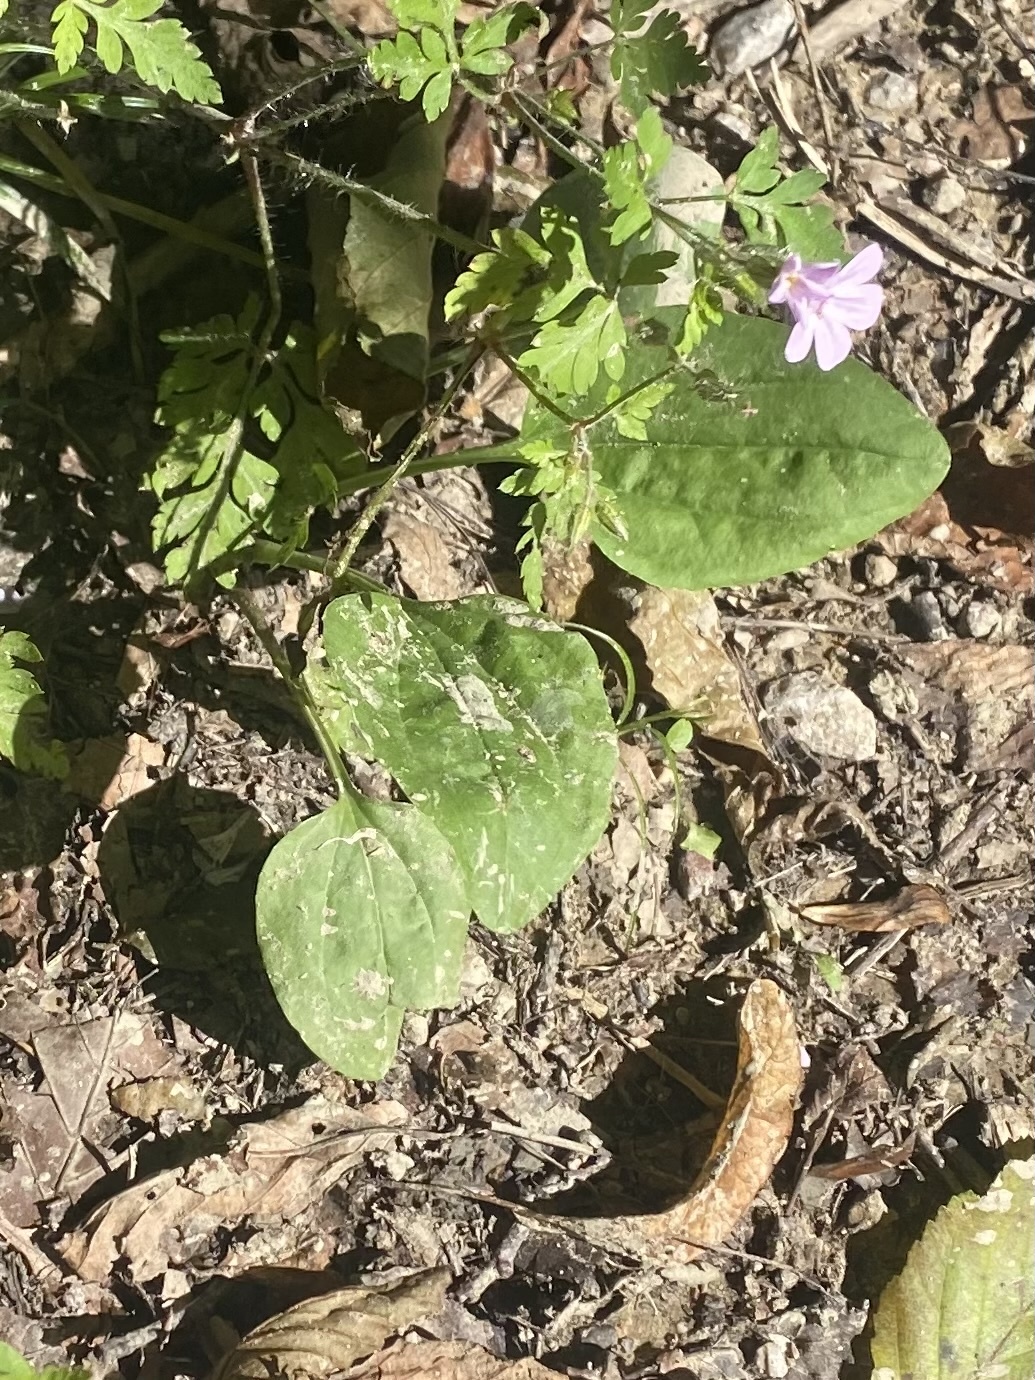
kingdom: Plantae
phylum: Tracheophyta
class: Magnoliopsida
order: Lamiales
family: Plantaginaceae
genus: Plantago
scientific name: Plantago major
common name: Common plantain
